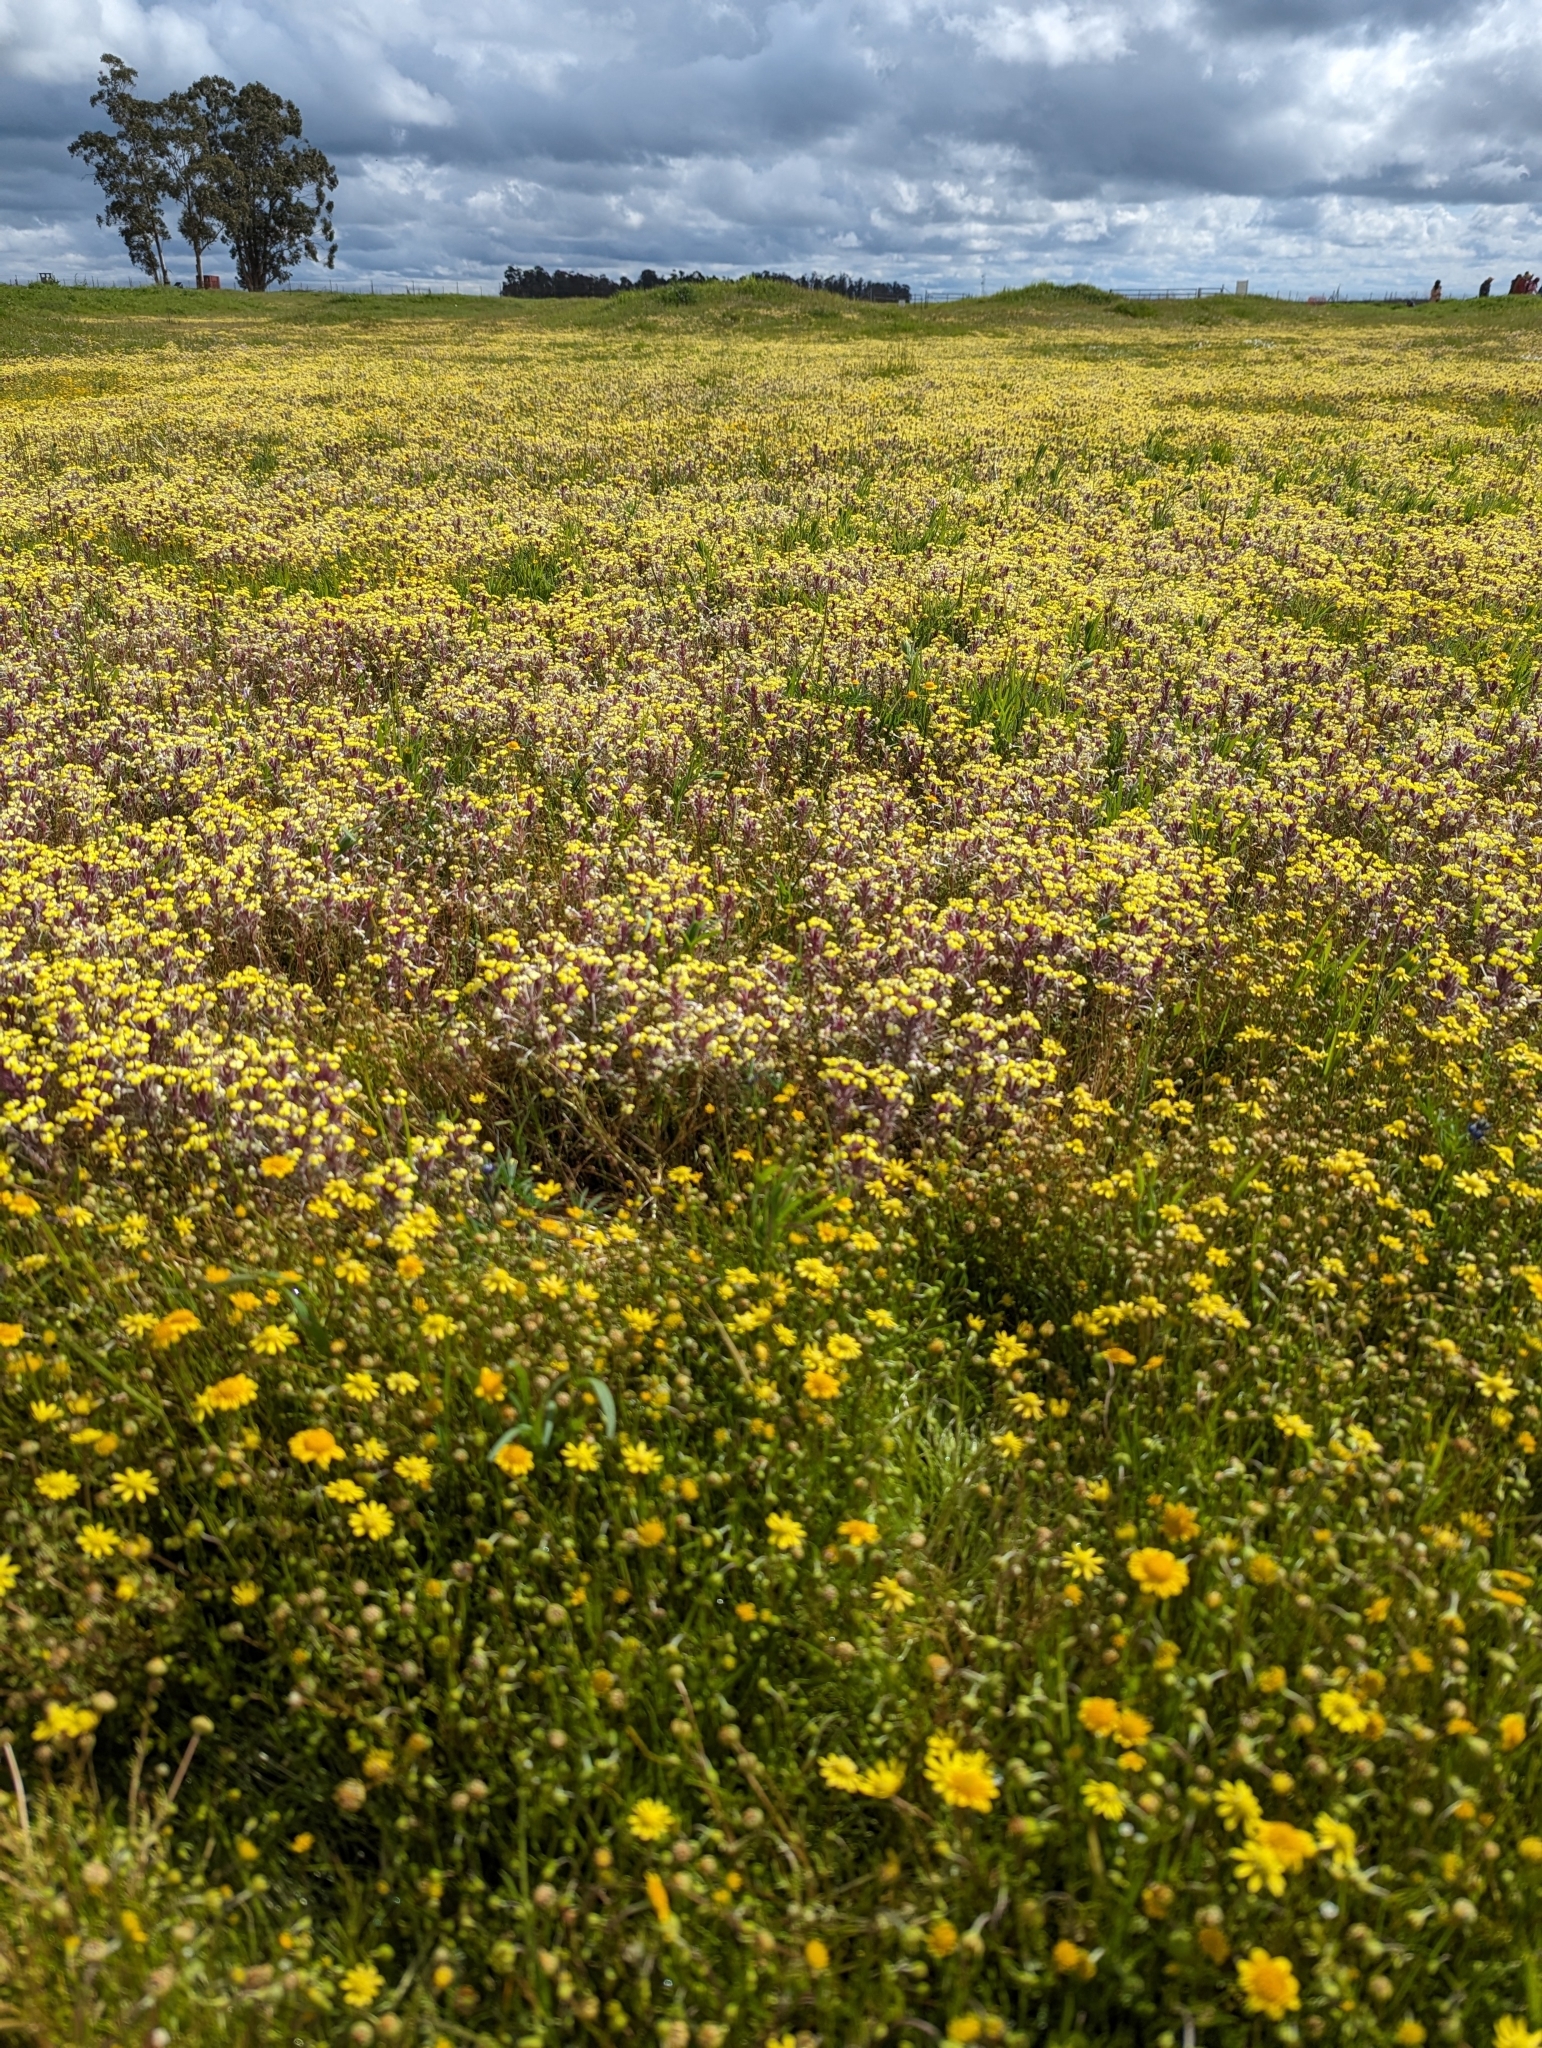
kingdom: Plantae
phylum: Tracheophyta
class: Magnoliopsida
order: Lamiales
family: Orobanchaceae
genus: Triphysaria
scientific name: Triphysaria eriantha
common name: Johnny-tuck
